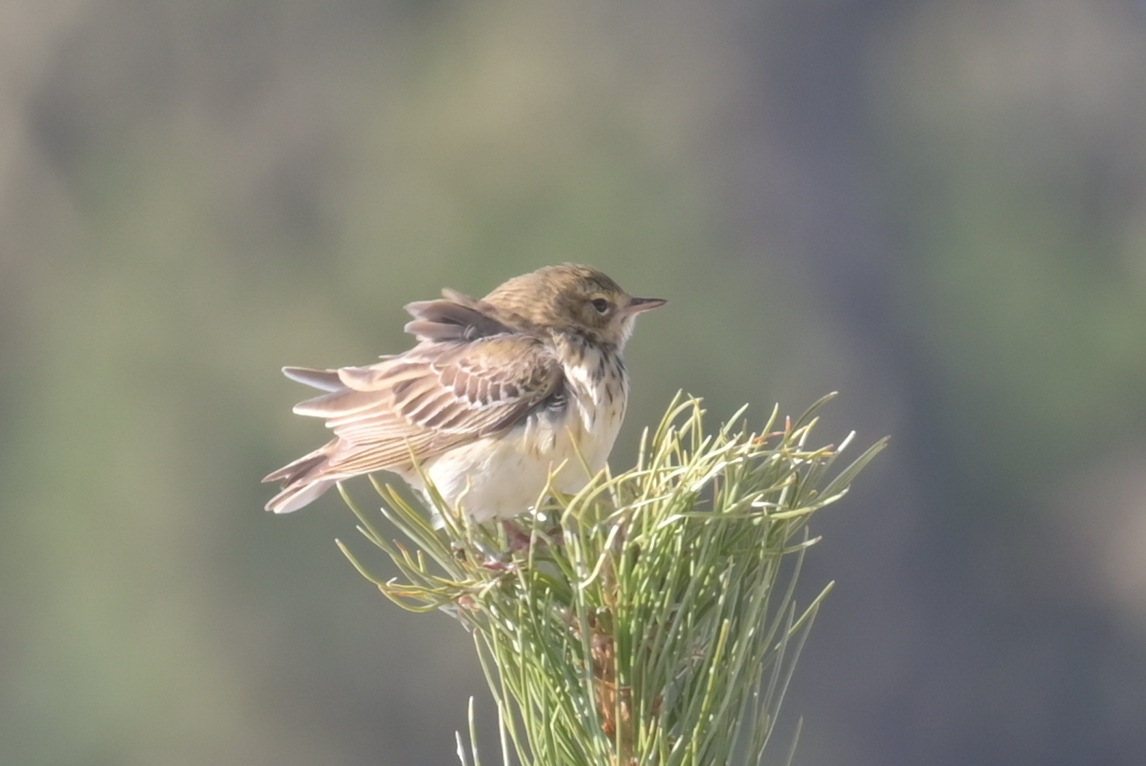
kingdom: Animalia
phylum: Chordata
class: Aves
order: Passeriformes
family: Motacillidae
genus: Anthus
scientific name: Anthus trivialis
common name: Tree pipit
